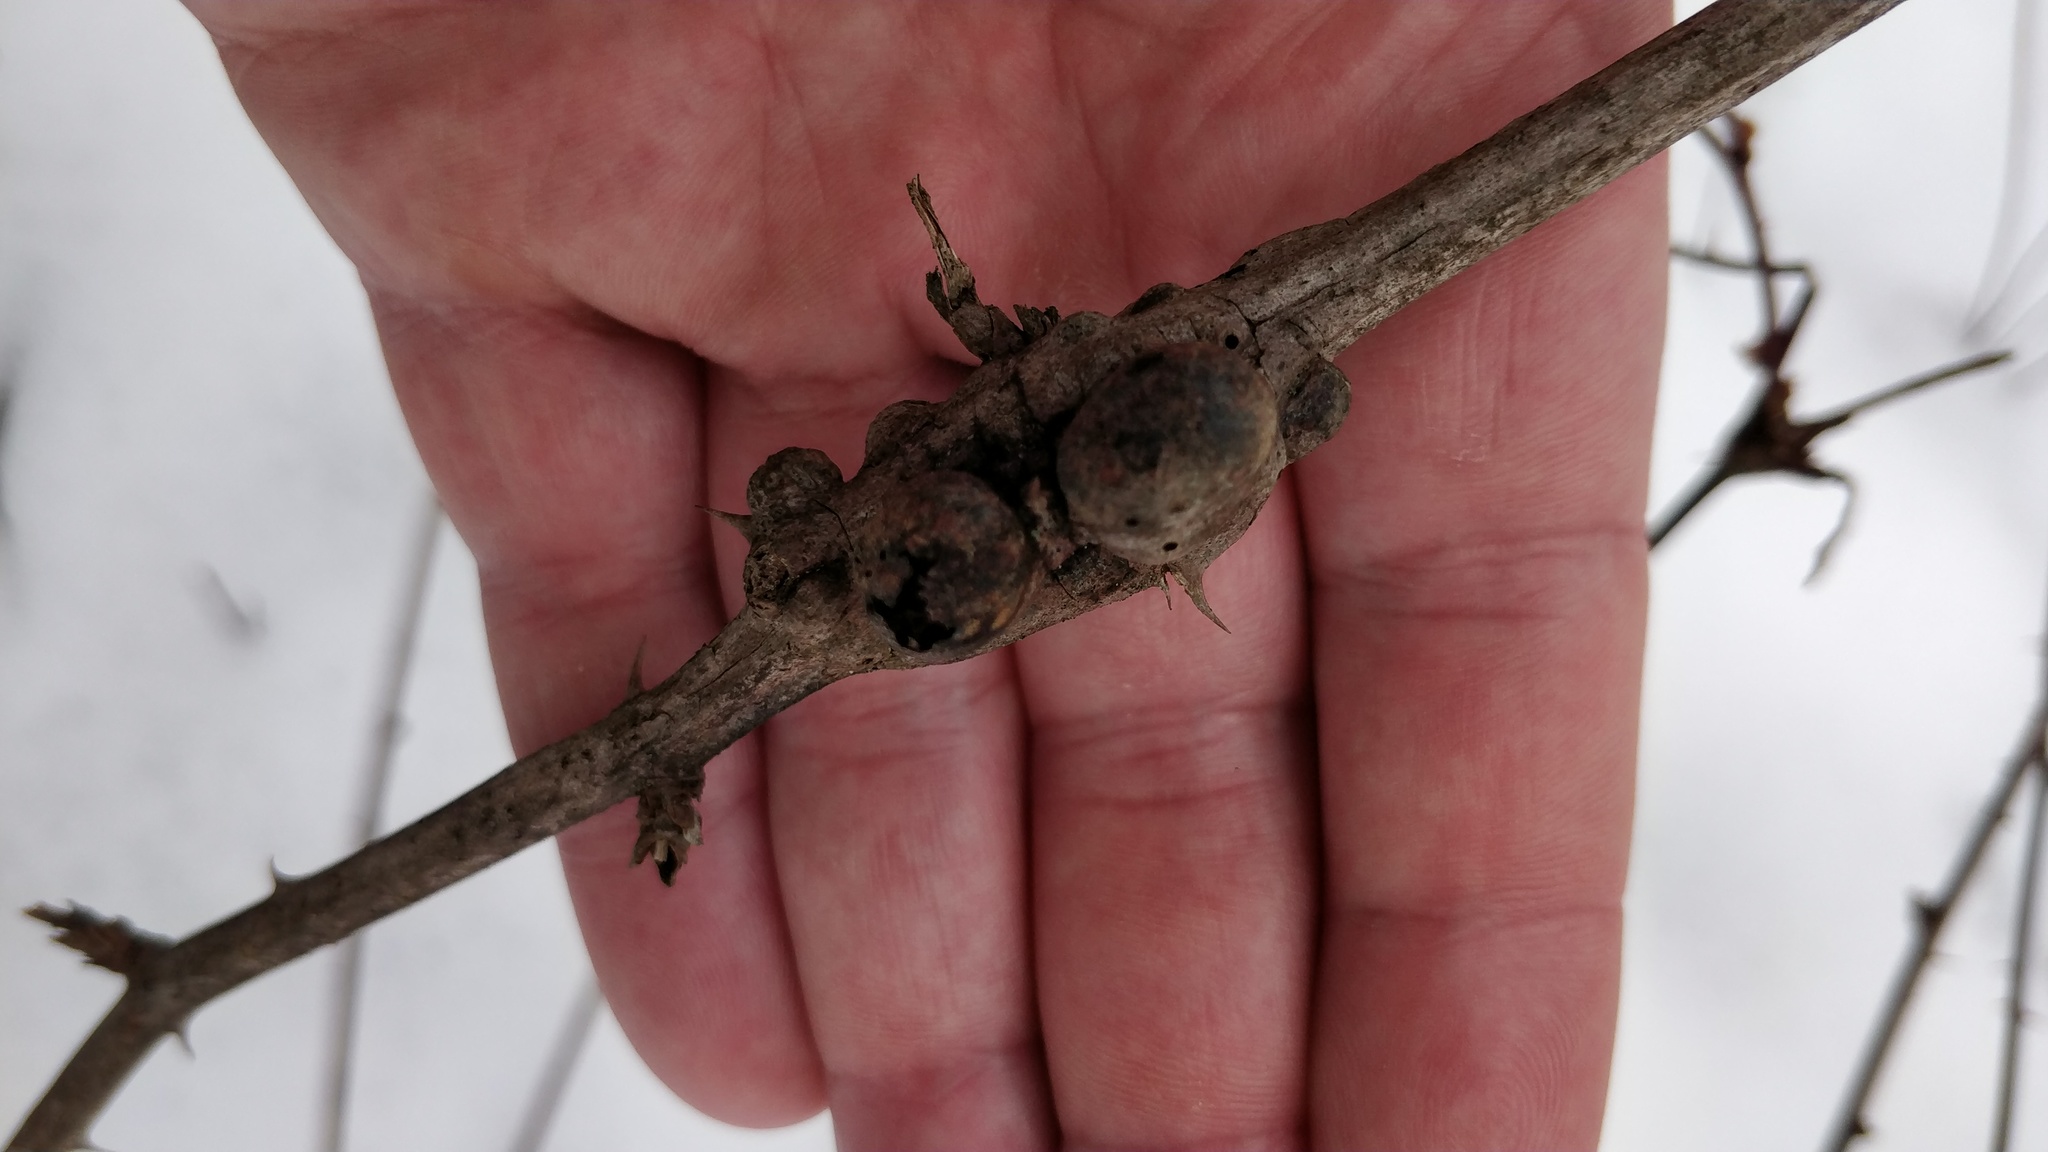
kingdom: Animalia
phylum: Arthropoda
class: Insecta
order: Hymenoptera
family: Cynipidae
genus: Diastrophus
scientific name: Diastrophus
